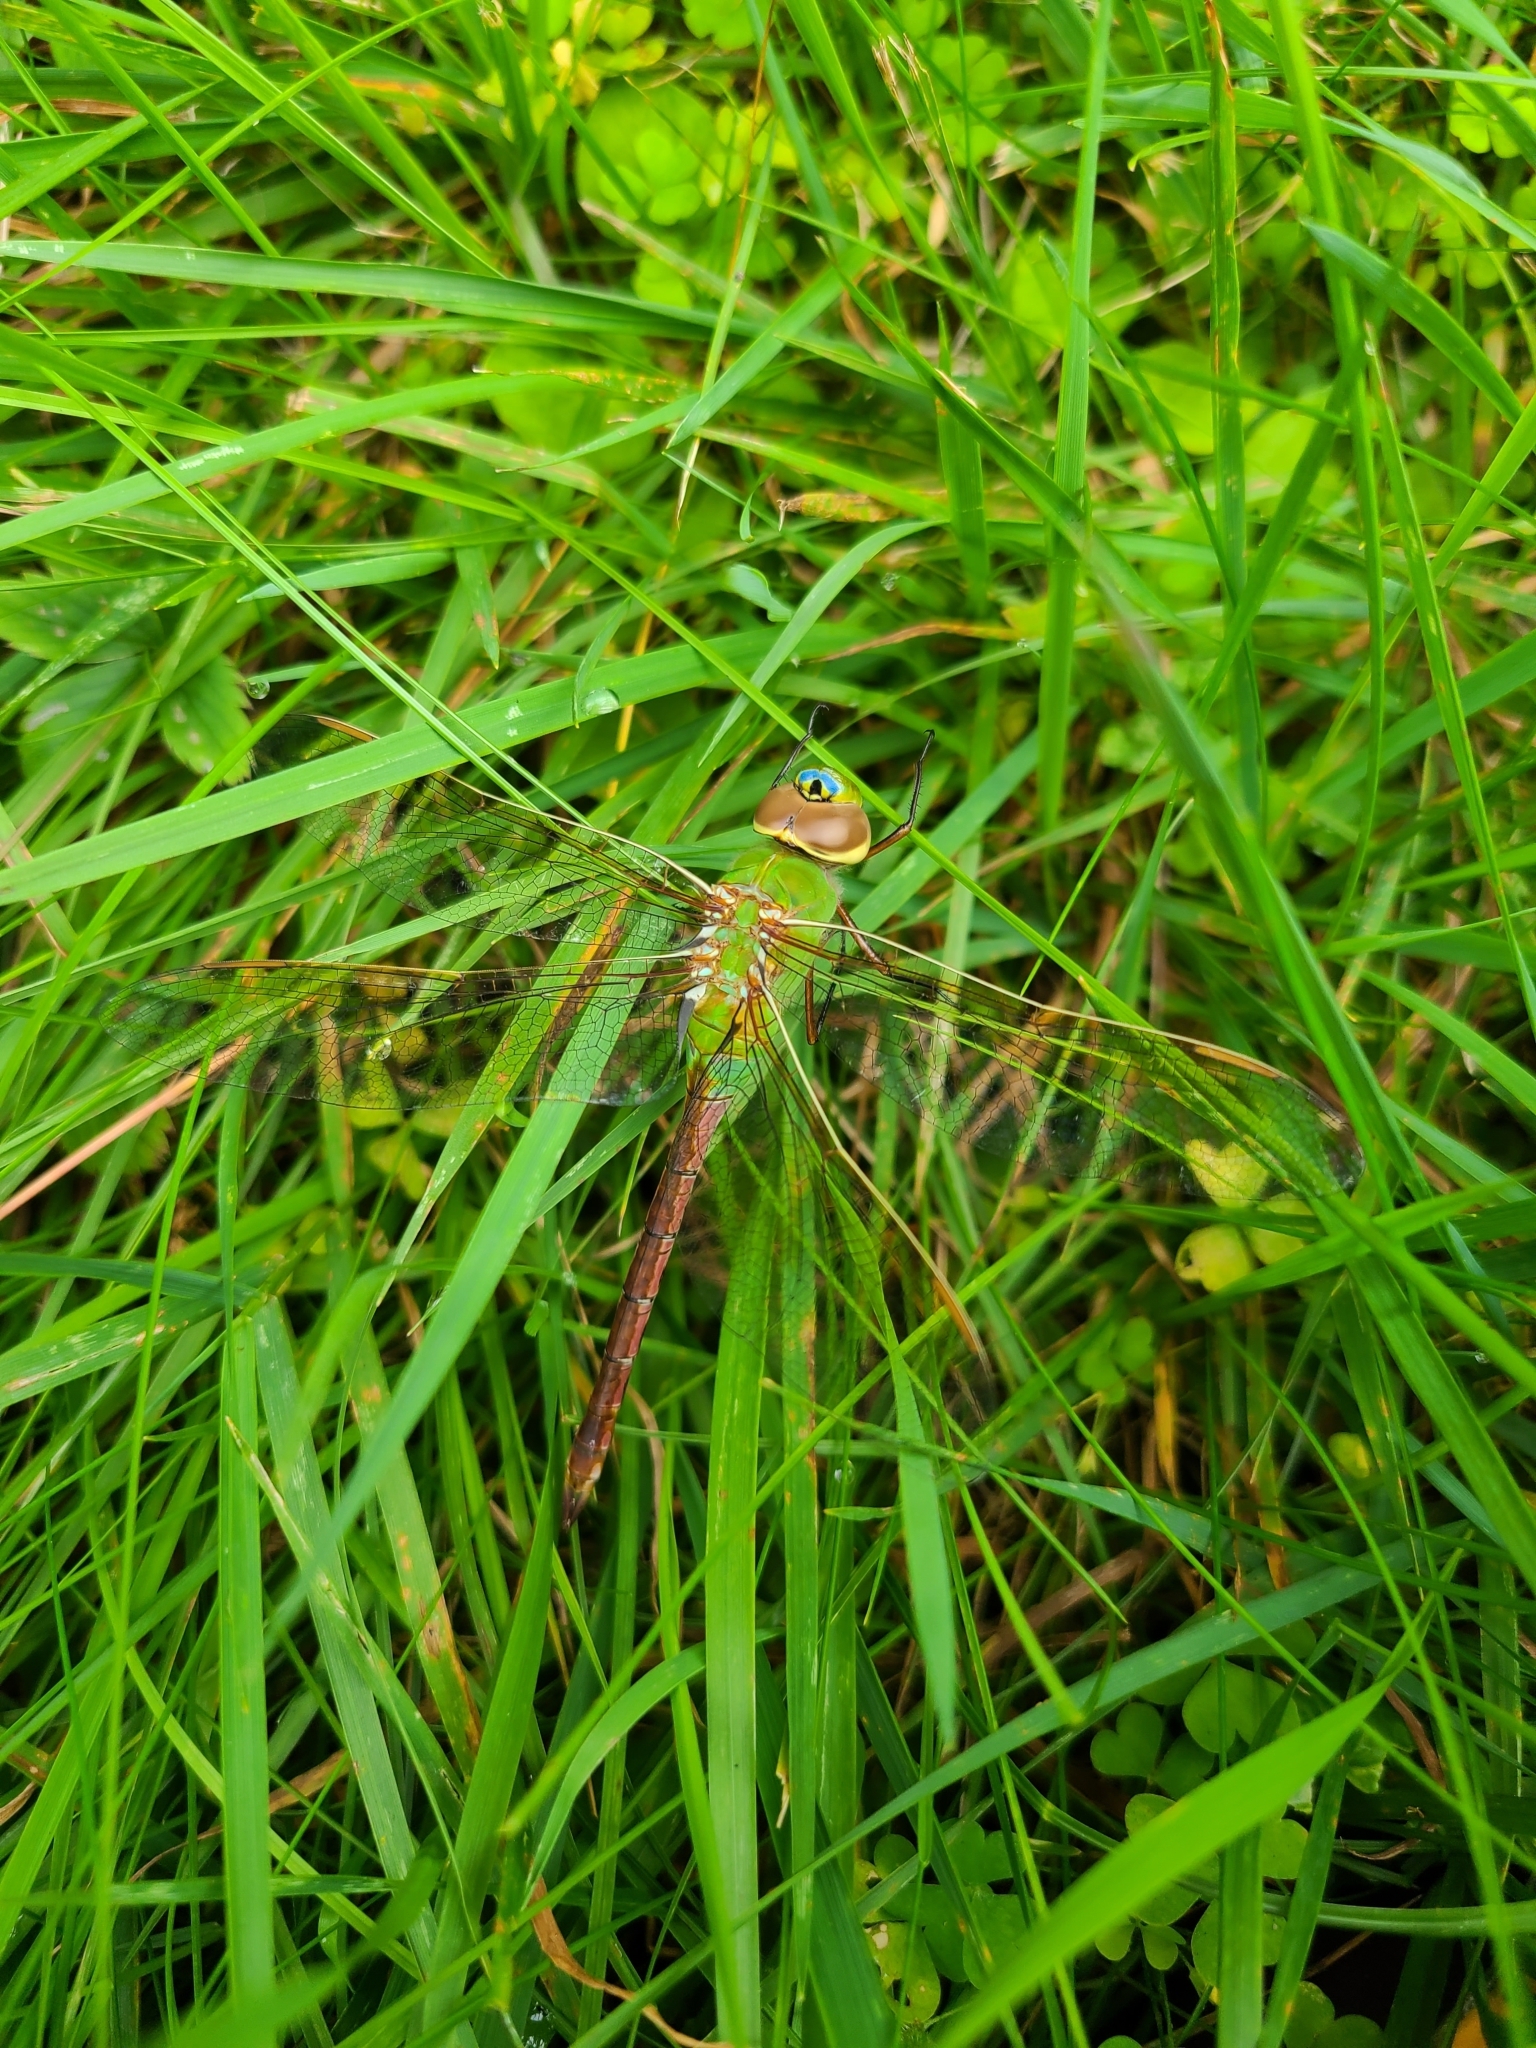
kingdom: Animalia
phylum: Arthropoda
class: Insecta
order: Odonata
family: Aeshnidae
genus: Anax
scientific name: Anax junius
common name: Common green darner
